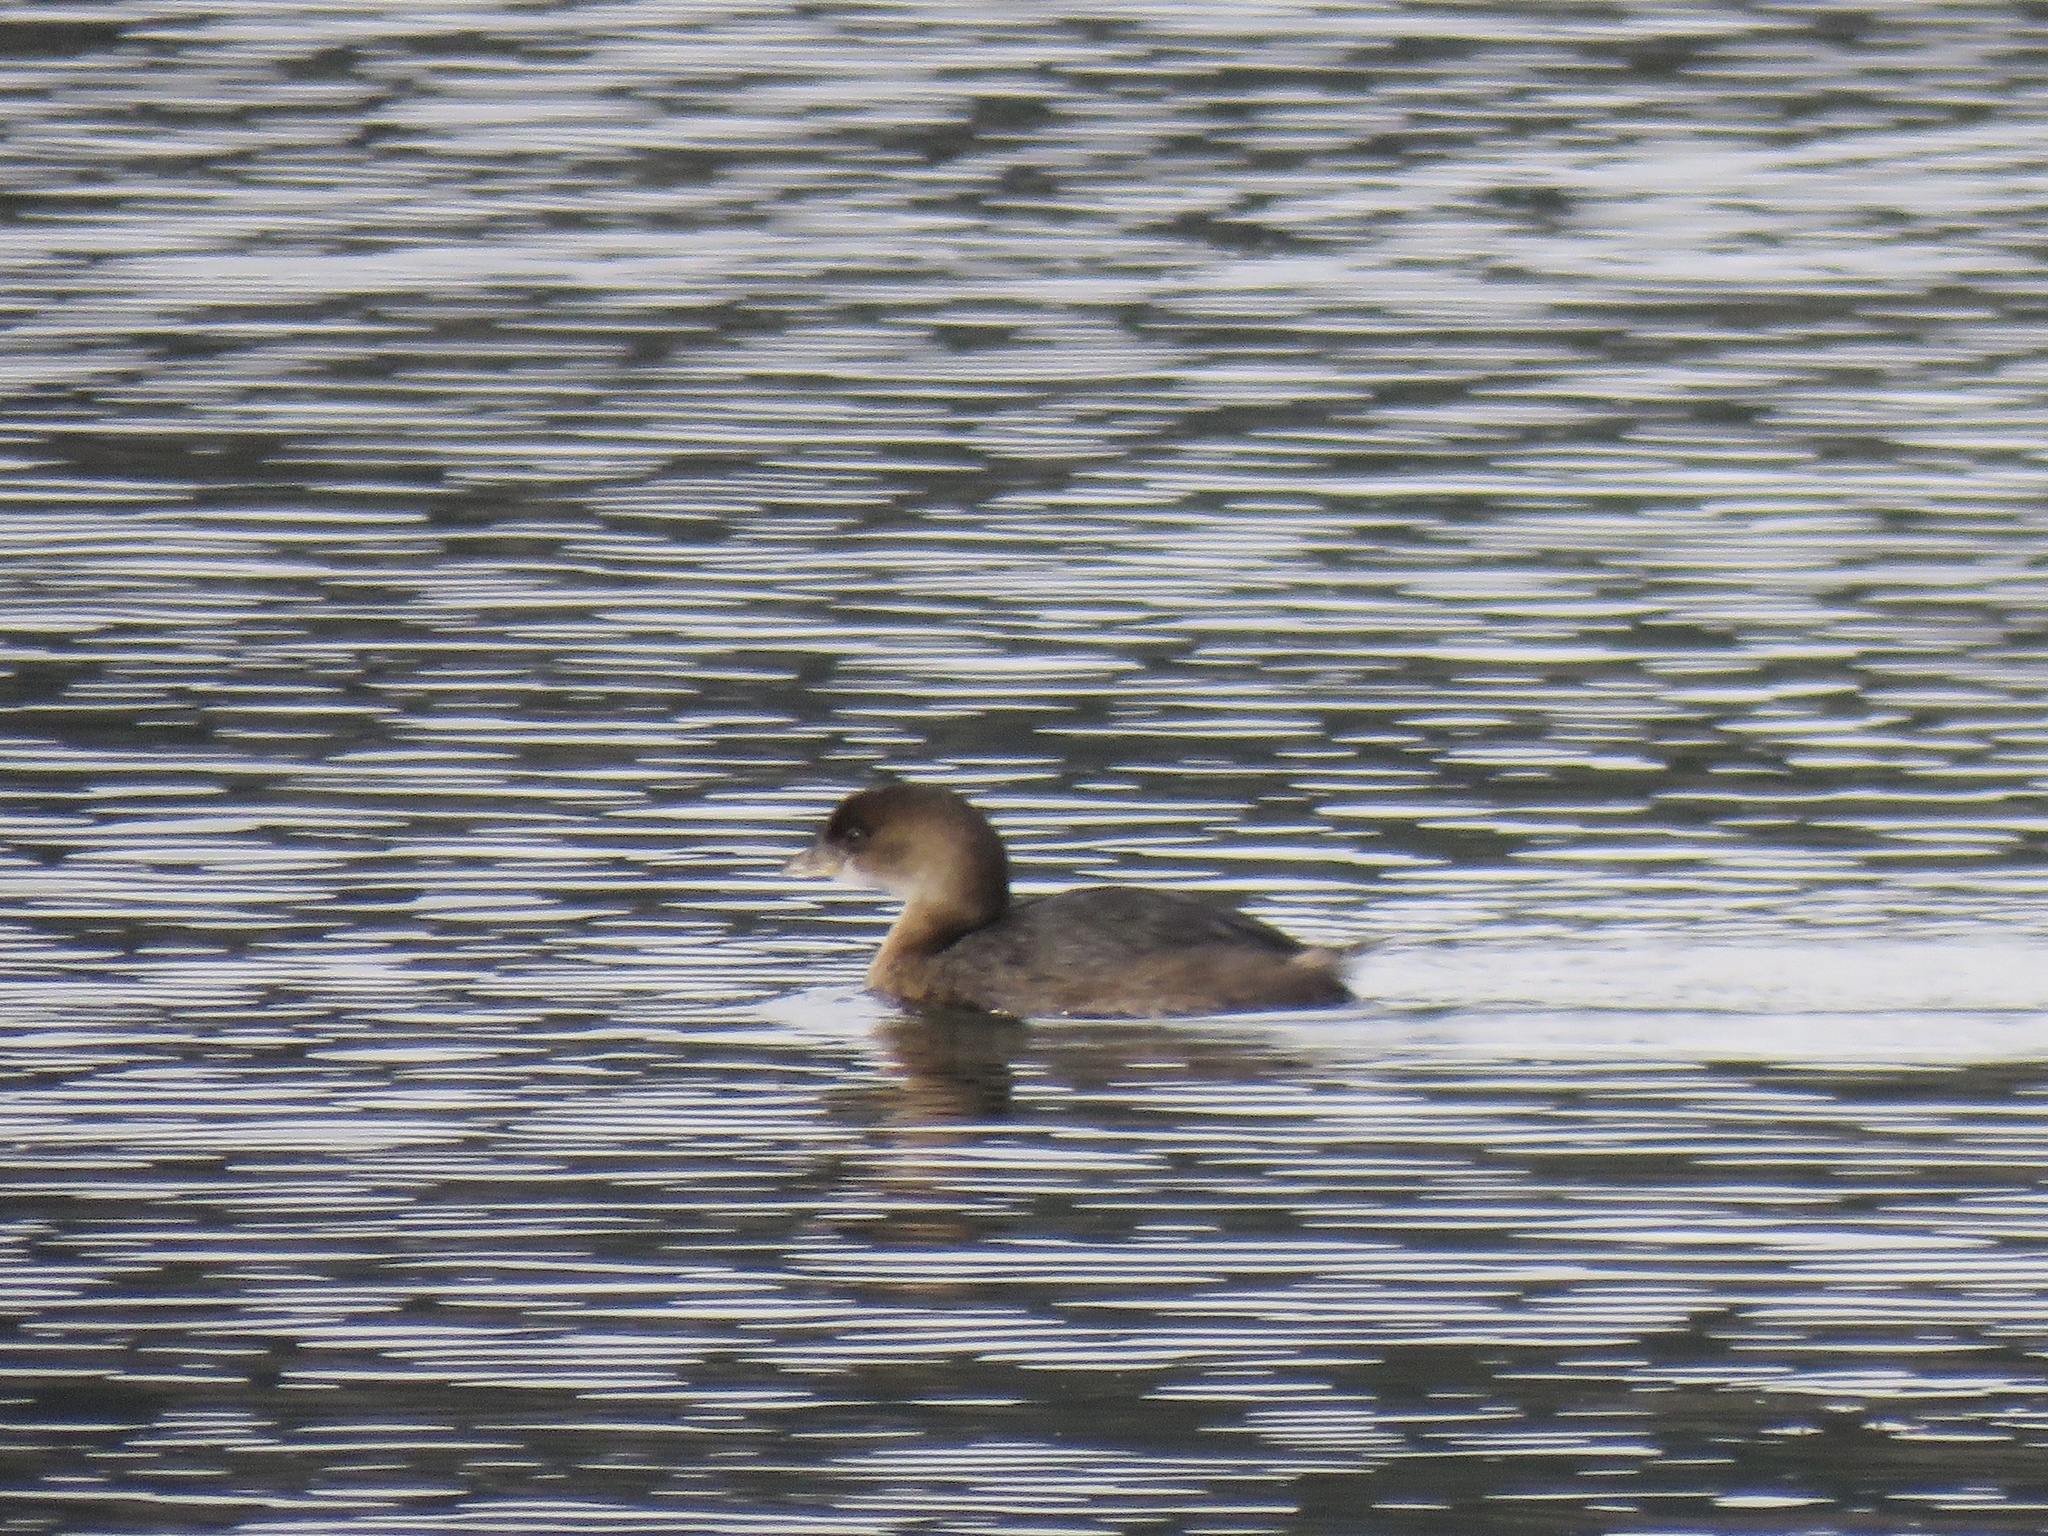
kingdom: Animalia
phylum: Chordata
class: Aves
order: Podicipediformes
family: Podicipedidae
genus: Podilymbus
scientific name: Podilymbus podiceps
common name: Pied-billed grebe
